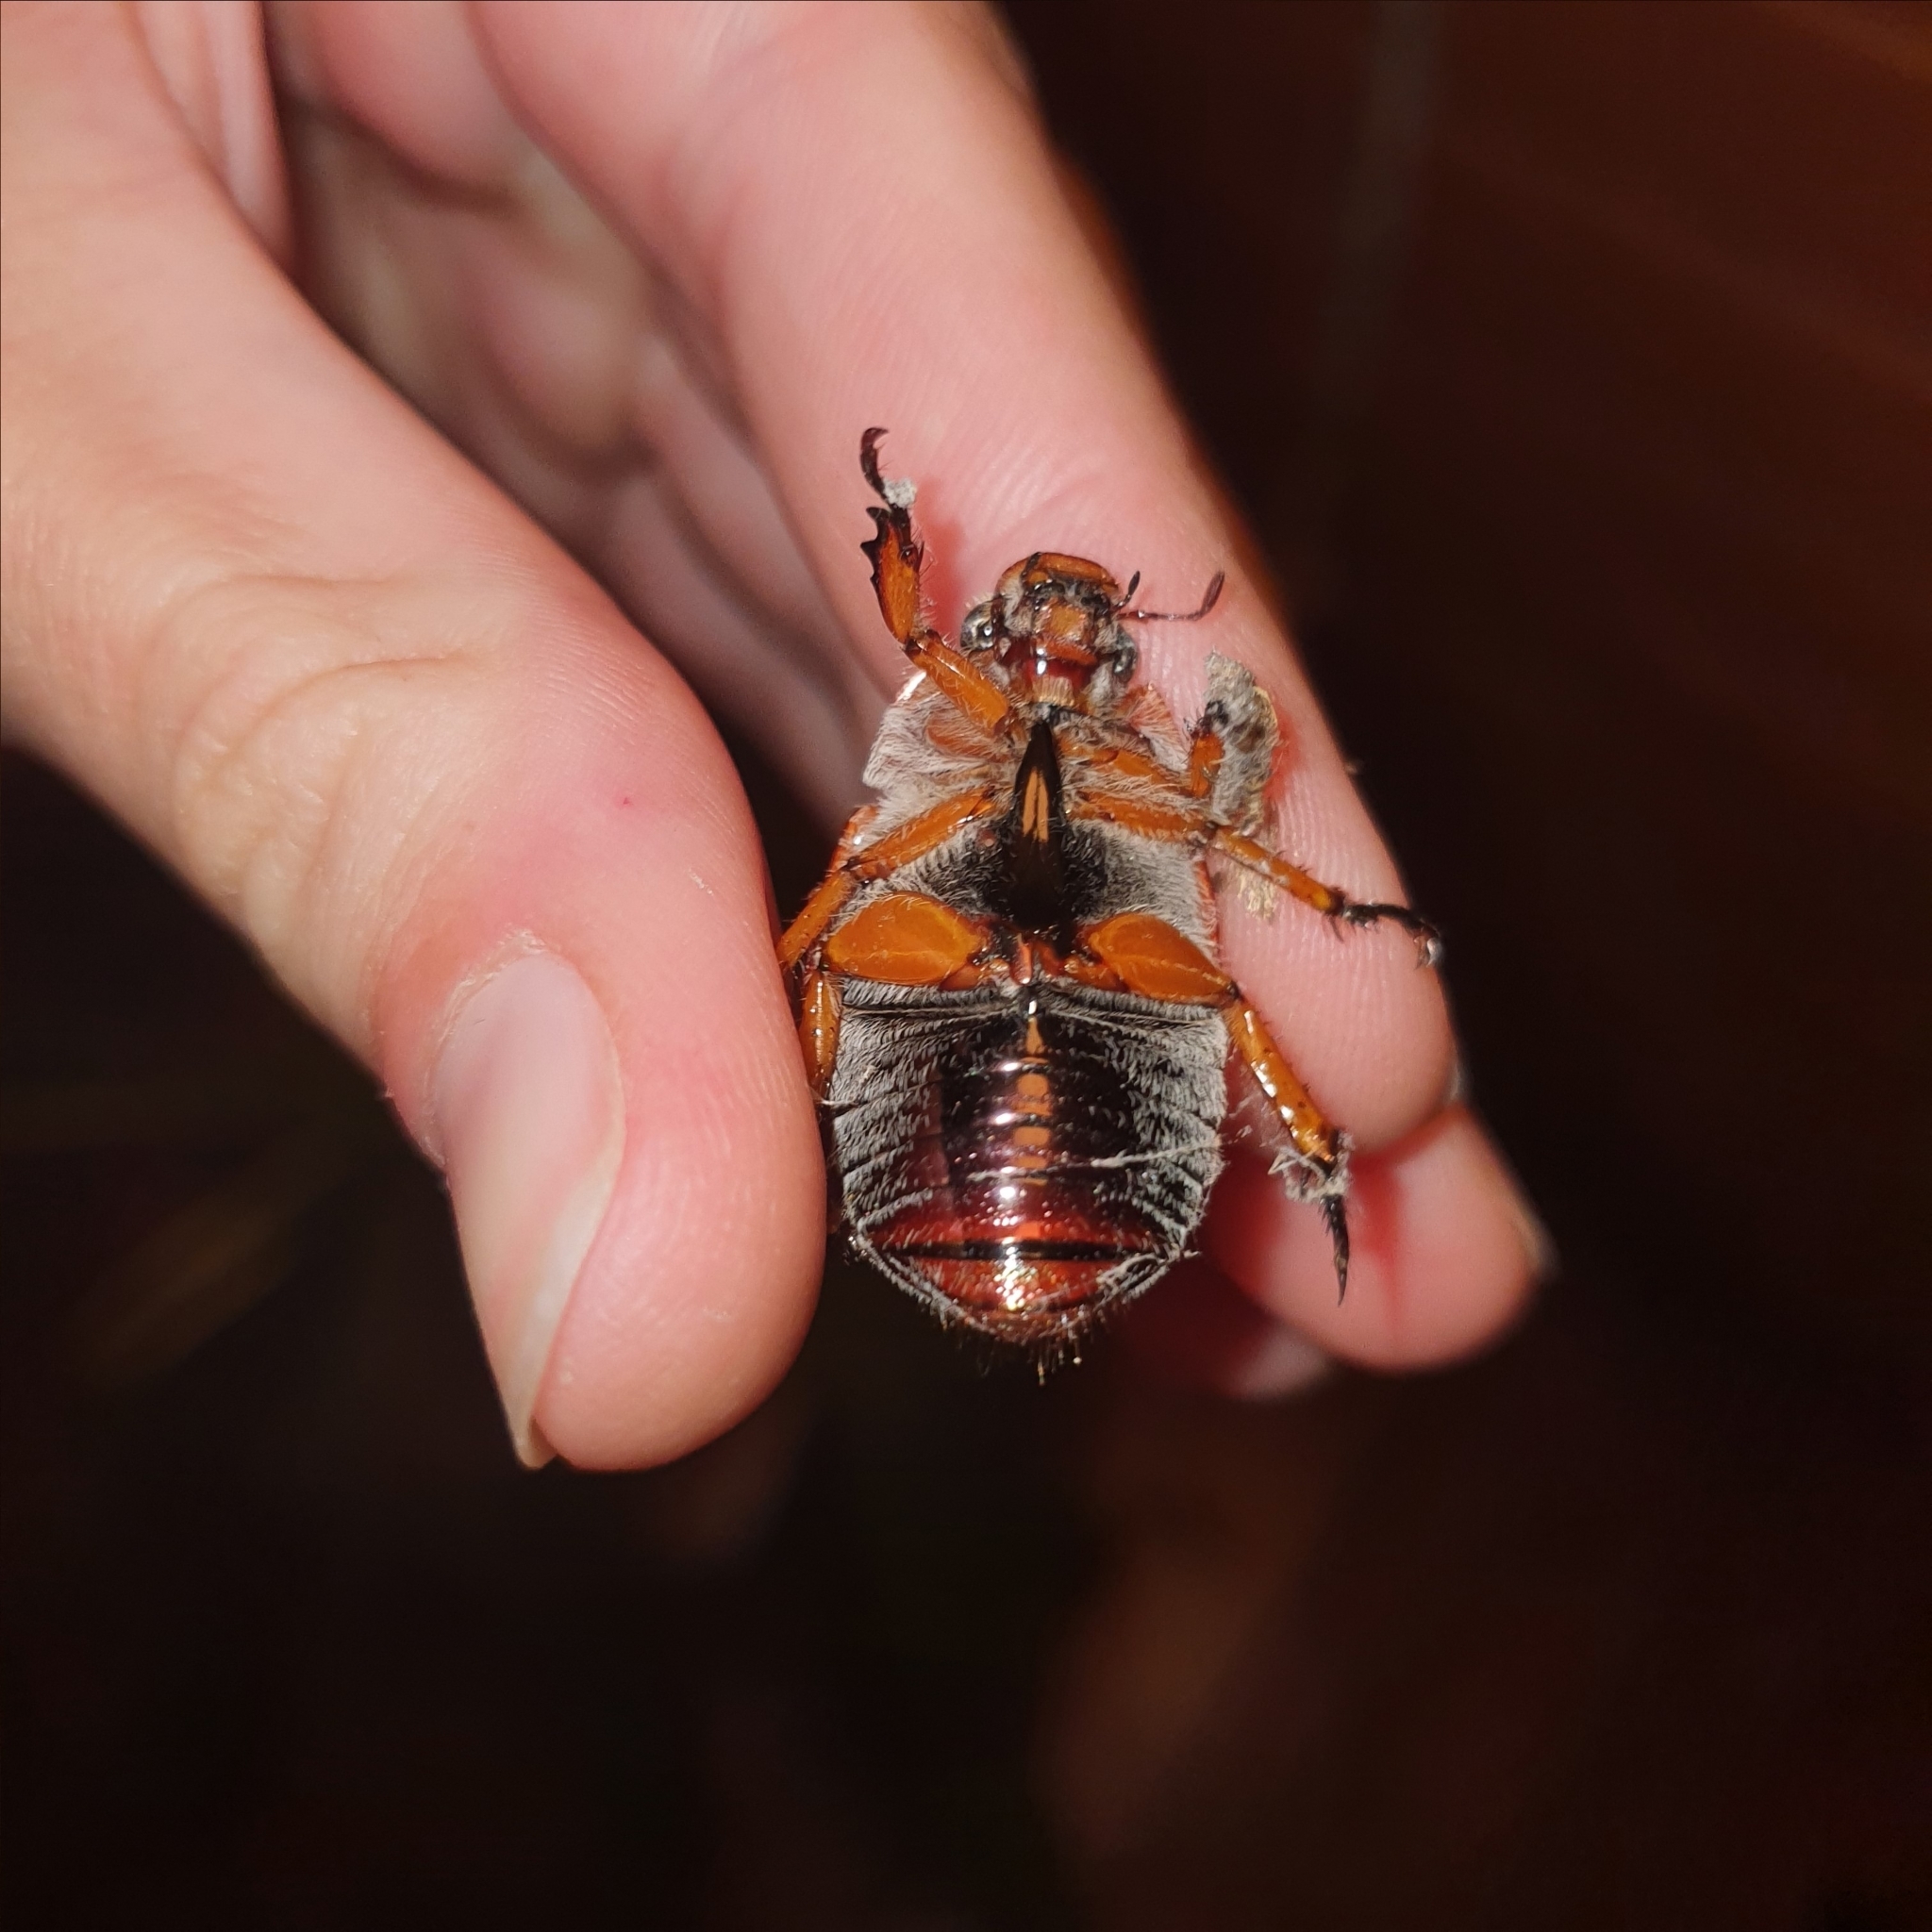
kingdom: Animalia
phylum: Arthropoda
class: Insecta
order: Coleoptera
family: Scarabaeidae
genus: Anoplognathus
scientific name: Anoplognathus porosus
